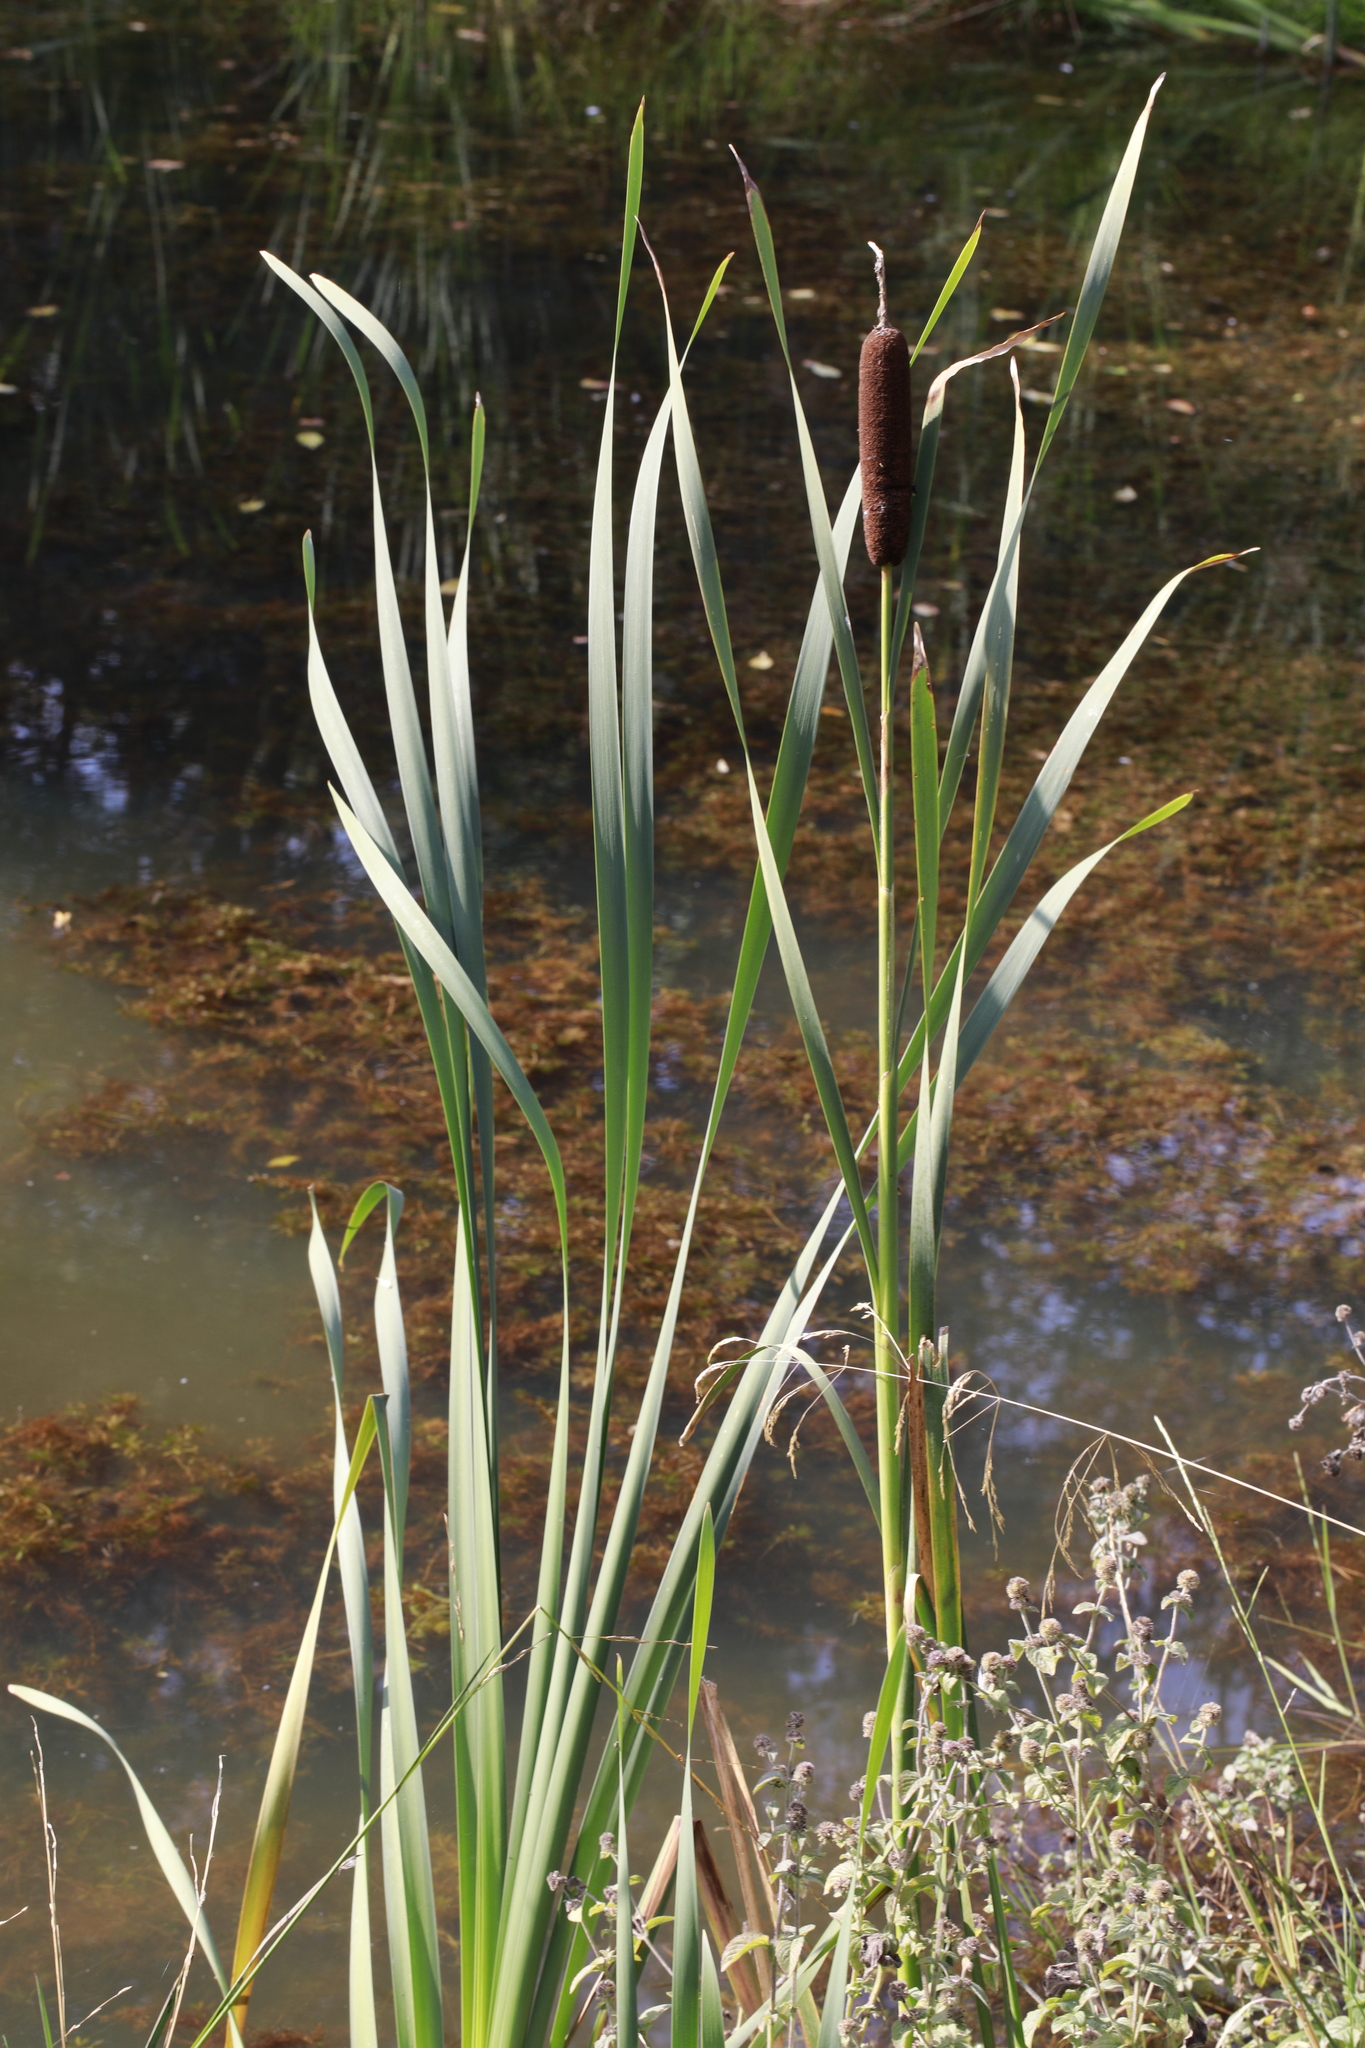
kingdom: Plantae
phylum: Tracheophyta
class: Liliopsida
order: Poales
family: Typhaceae
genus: Typha
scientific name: Typha latifolia
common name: Broadleaf cattail
